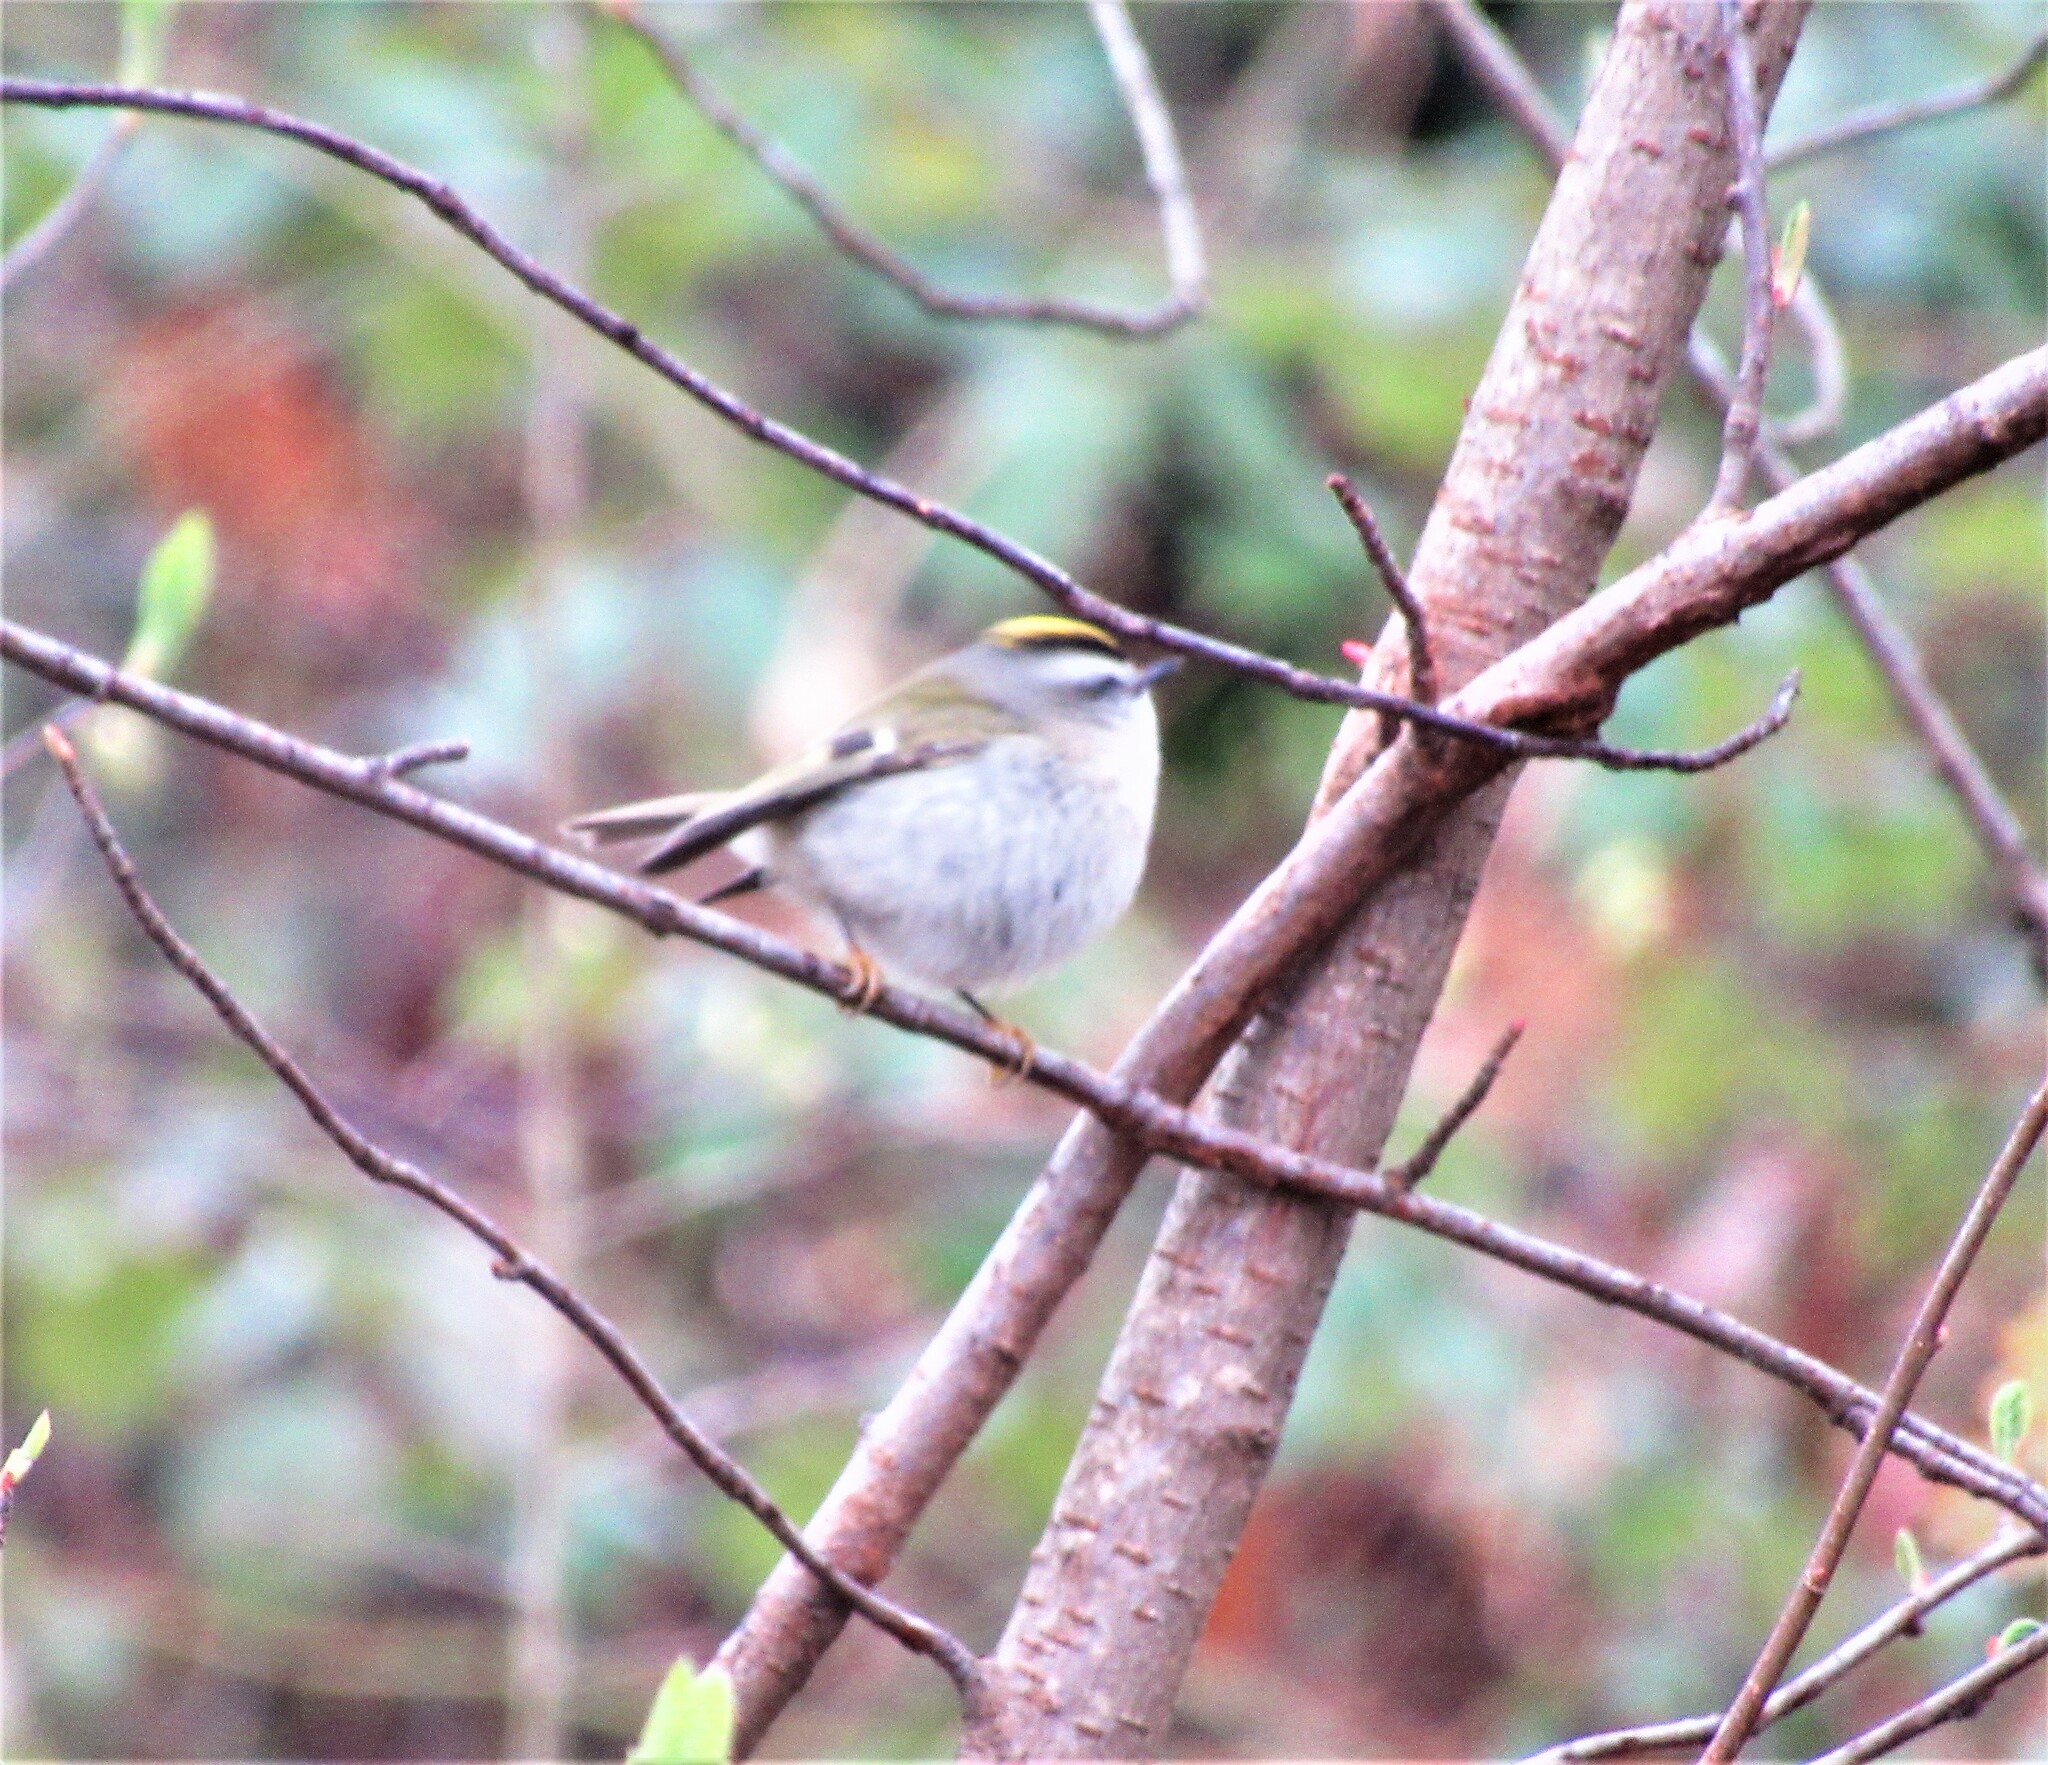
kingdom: Animalia
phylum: Chordata
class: Aves
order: Passeriformes
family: Regulidae
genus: Regulus
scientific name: Regulus satrapa
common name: Golden-crowned kinglet
